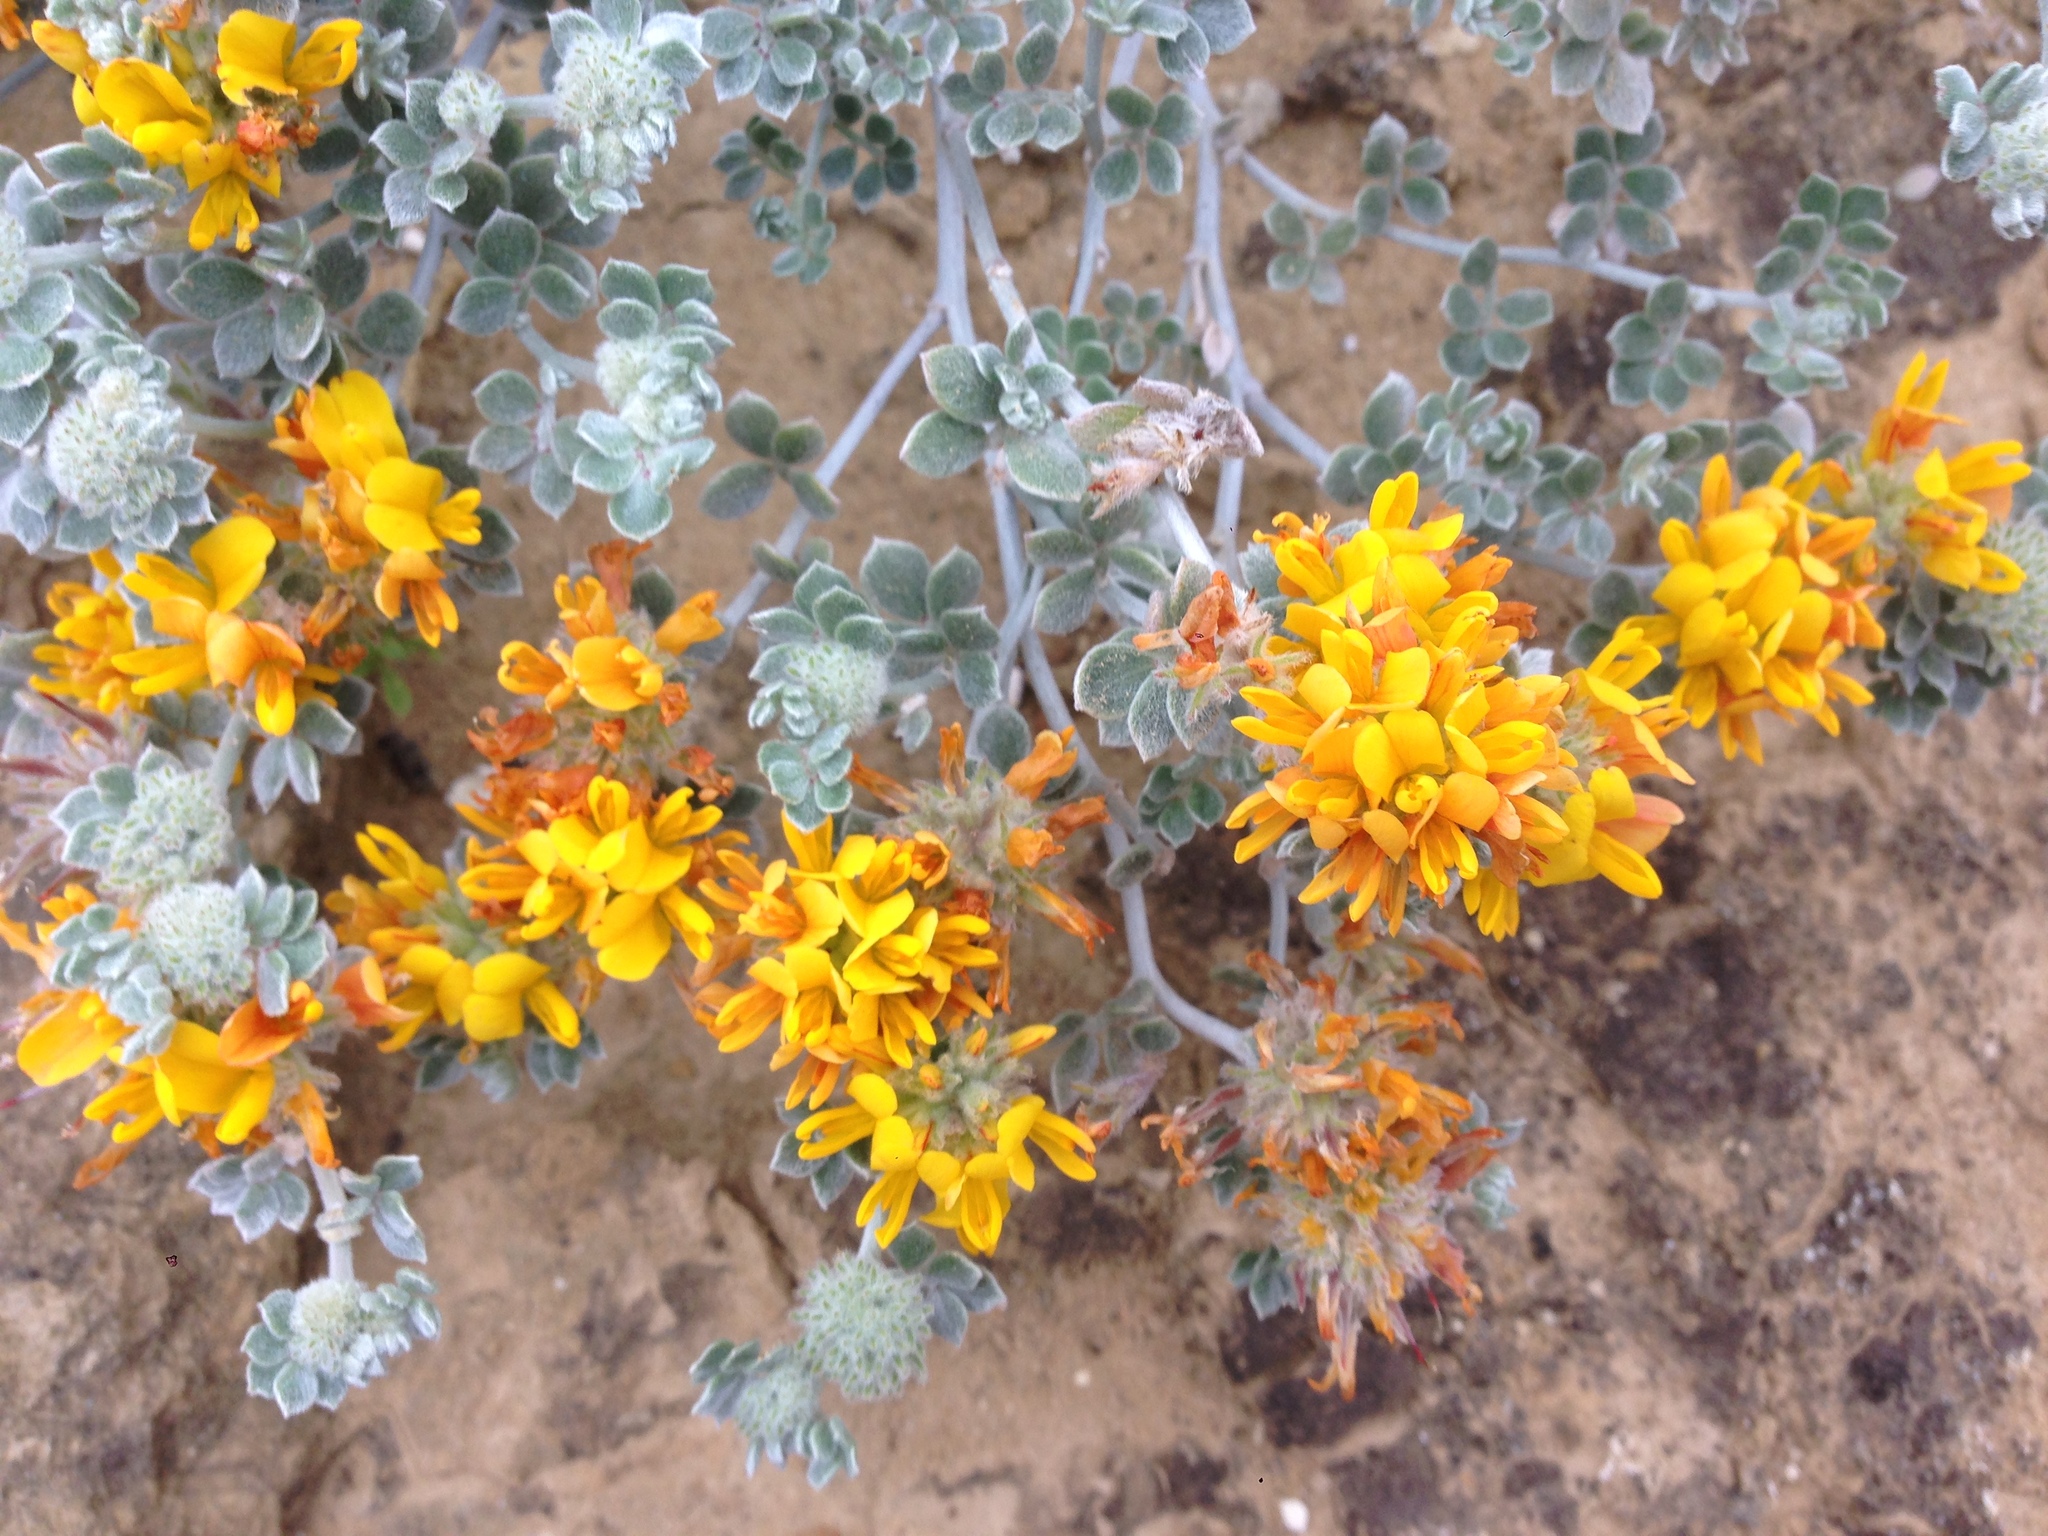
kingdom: Plantae
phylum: Tracheophyta
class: Magnoliopsida
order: Fabales
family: Fabaceae
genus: Acmispon
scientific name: Acmispon argophyllus
